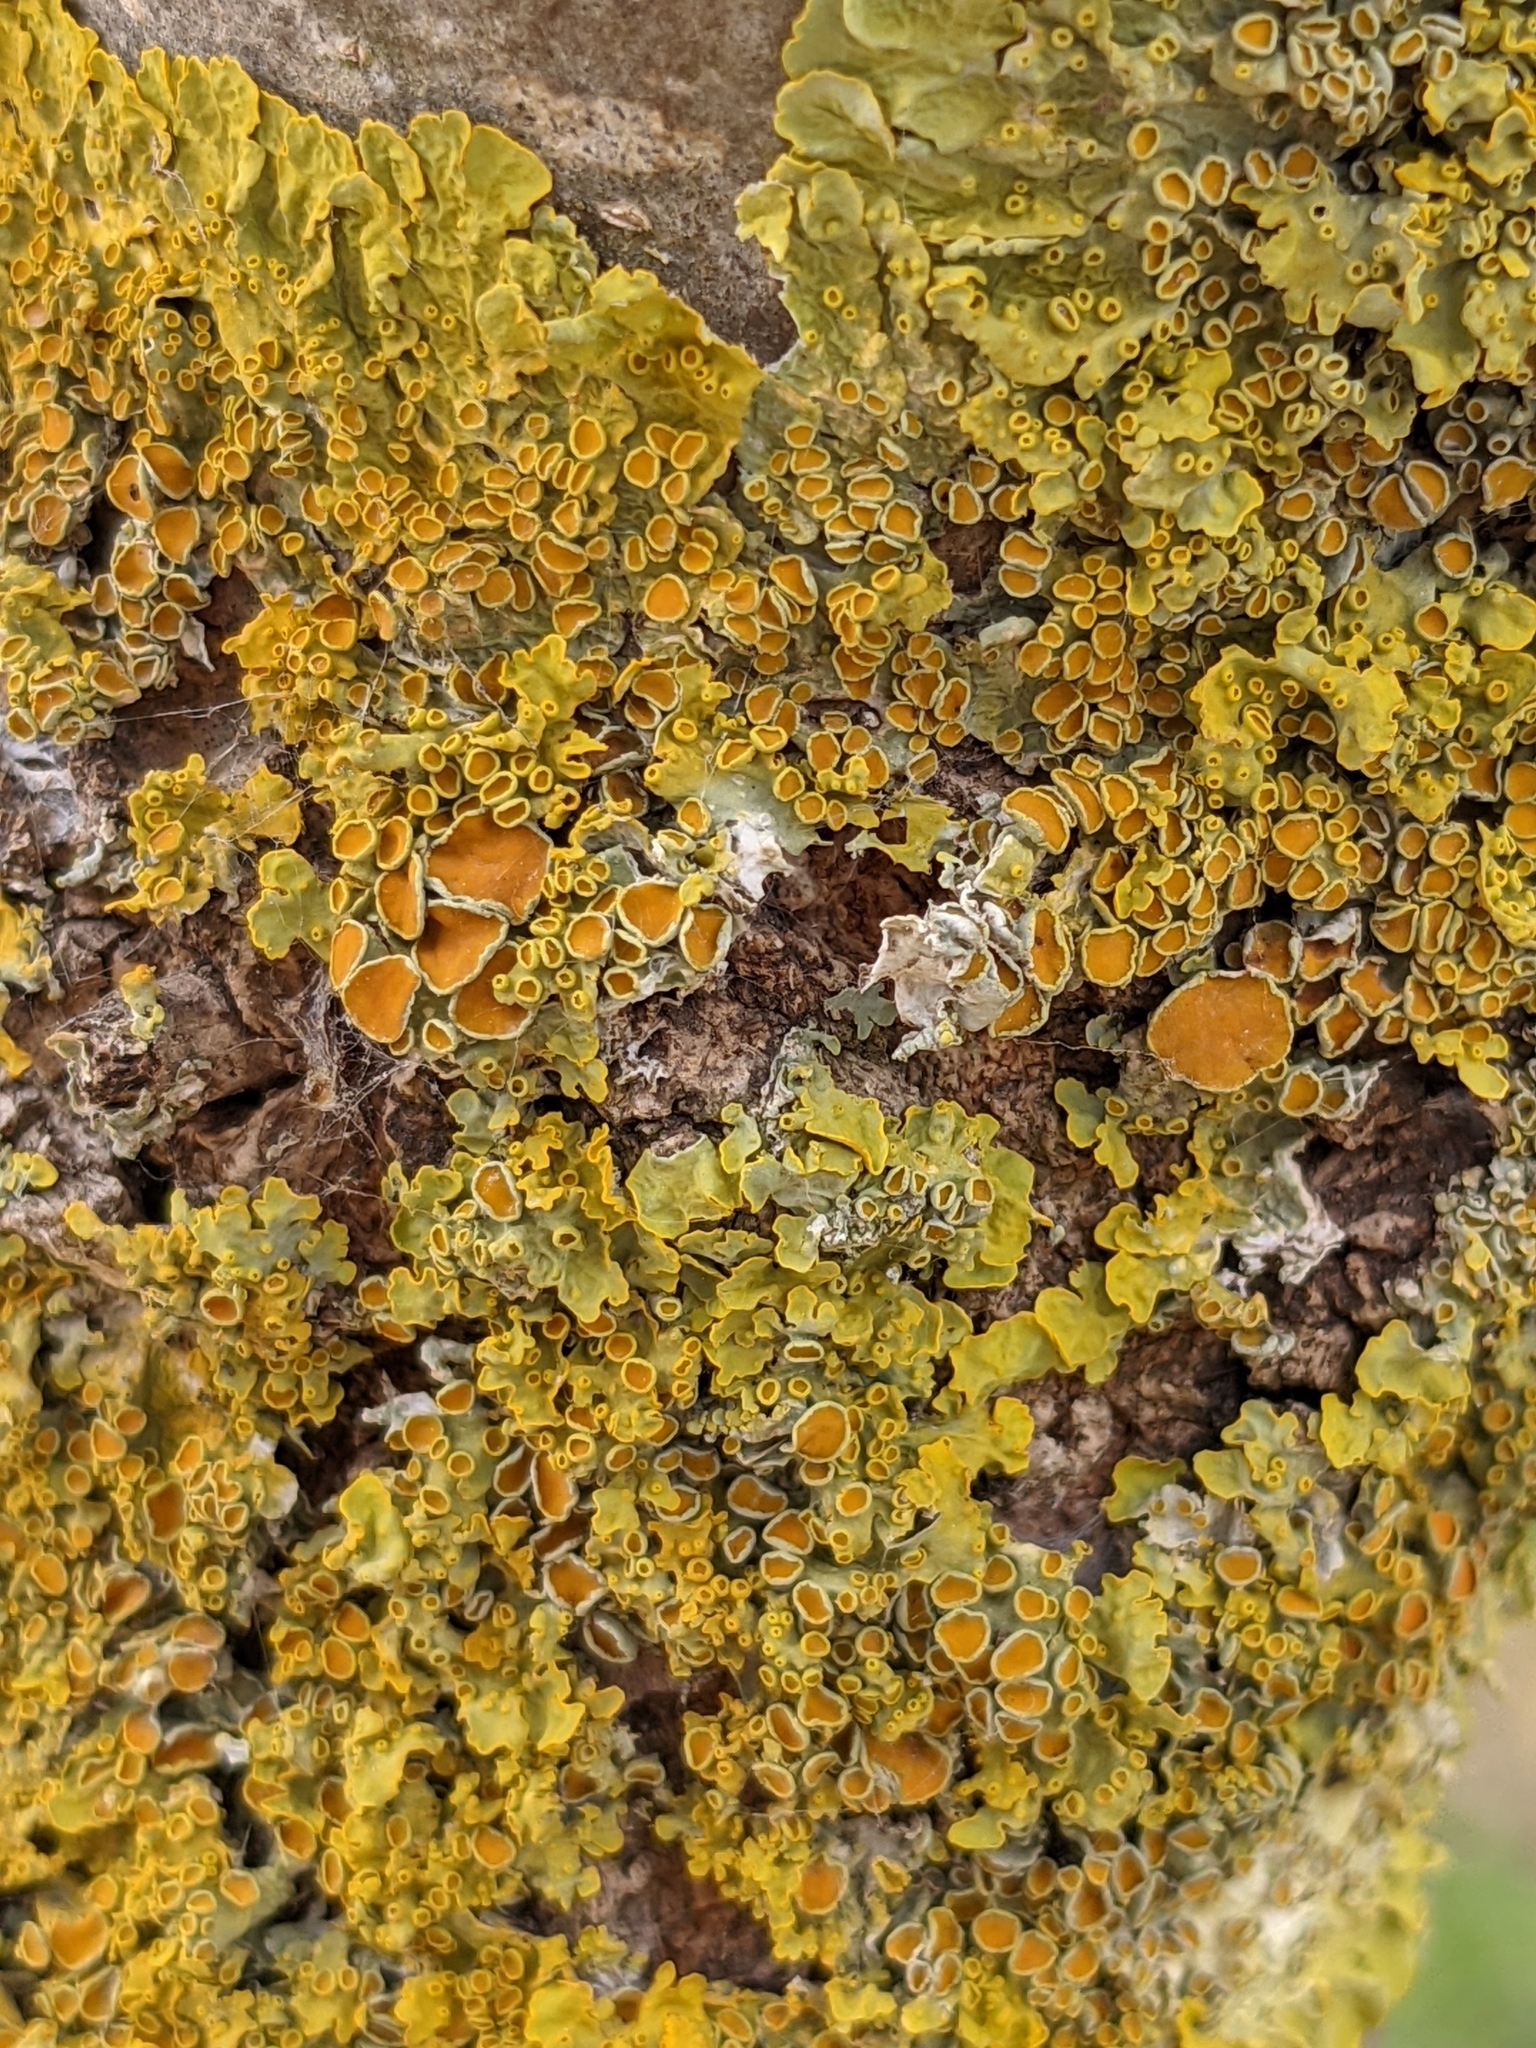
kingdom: Fungi
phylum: Ascomycota
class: Lecanoromycetes
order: Teloschistales
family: Teloschistaceae
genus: Xanthoria
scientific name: Xanthoria parietina
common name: Common orange lichen
